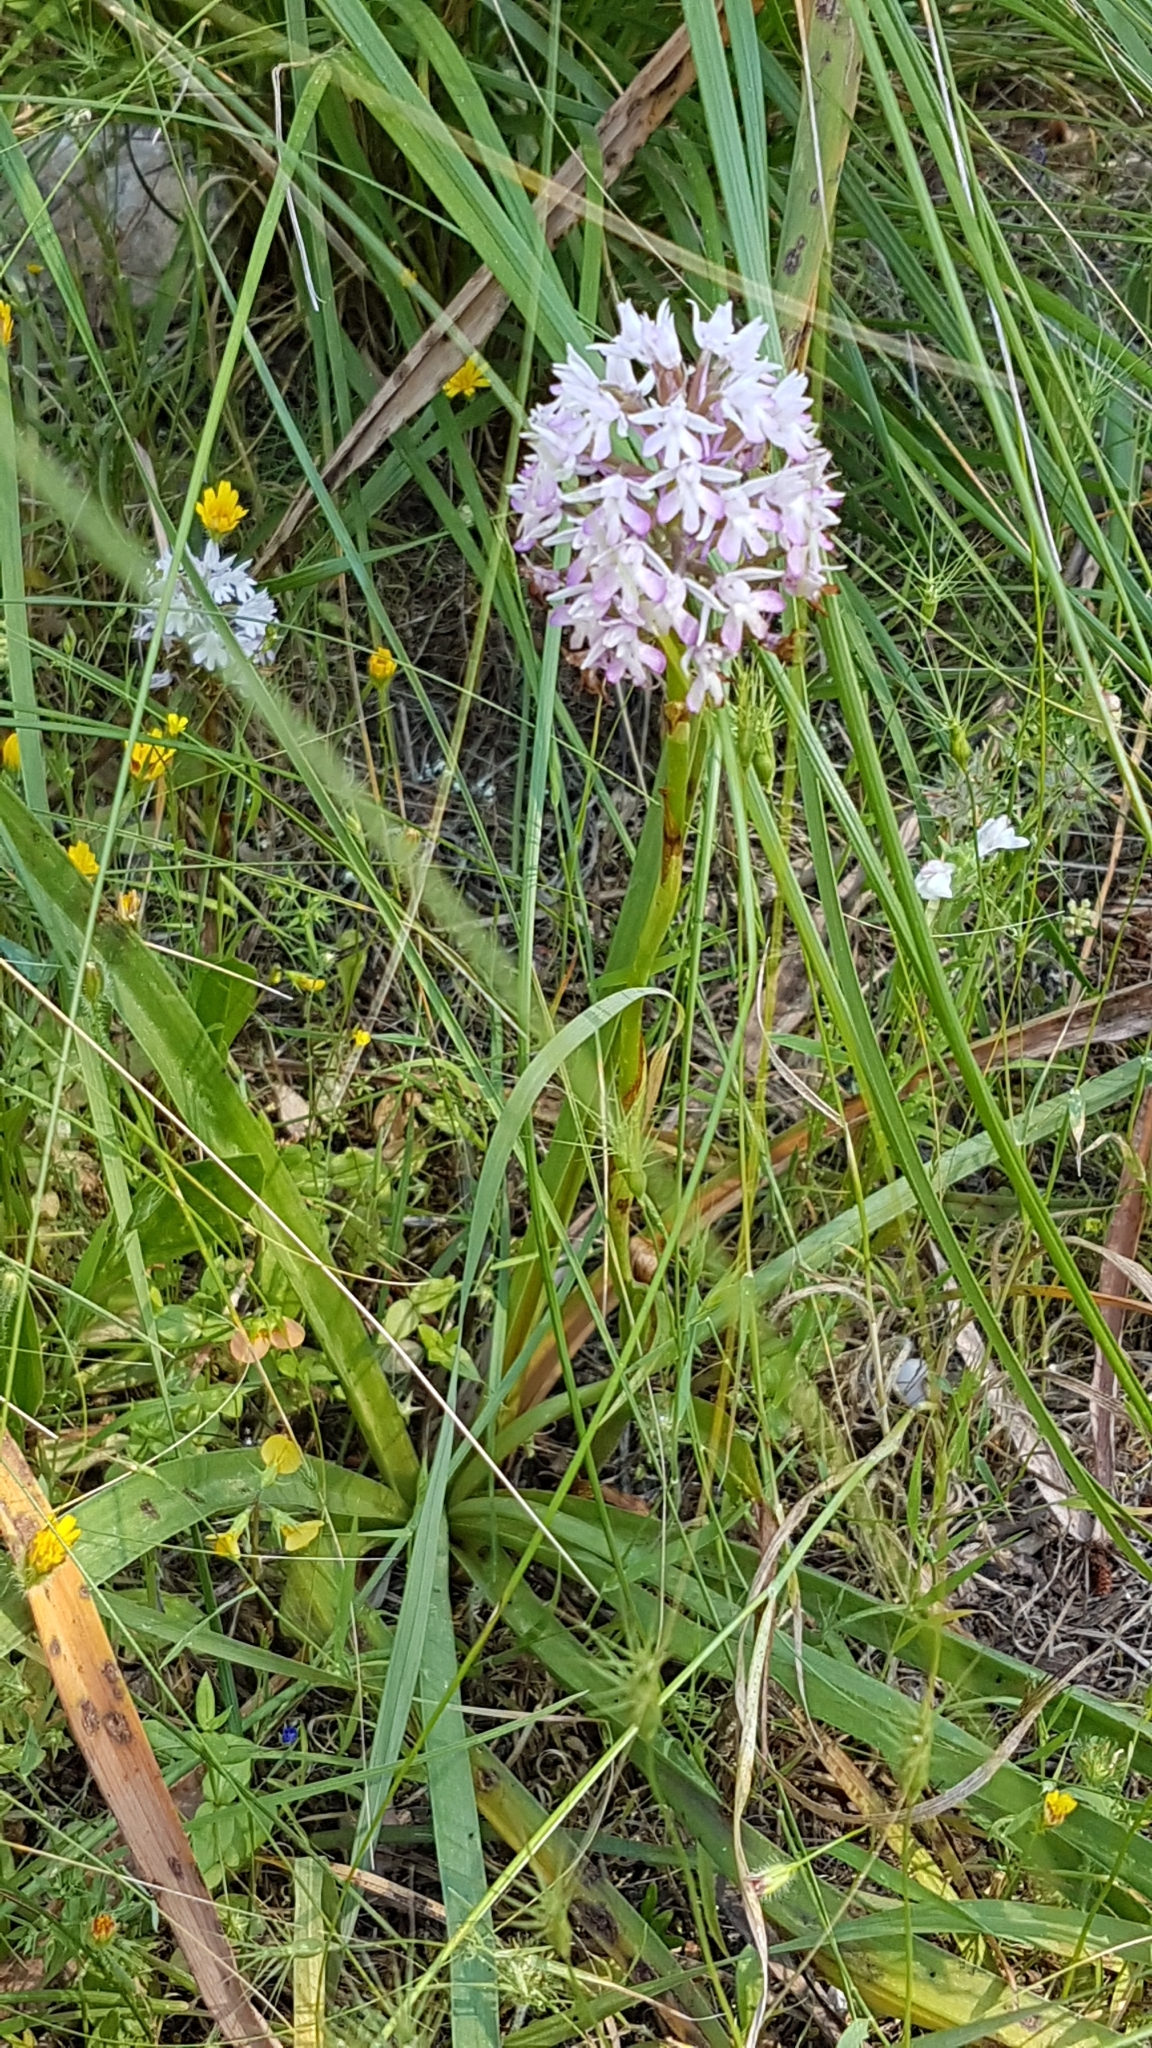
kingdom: Plantae
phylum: Tracheophyta
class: Liliopsida
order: Asparagales
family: Orchidaceae
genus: Anacamptis
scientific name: Anacamptis pyramidalis
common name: Pyramidal orchid
